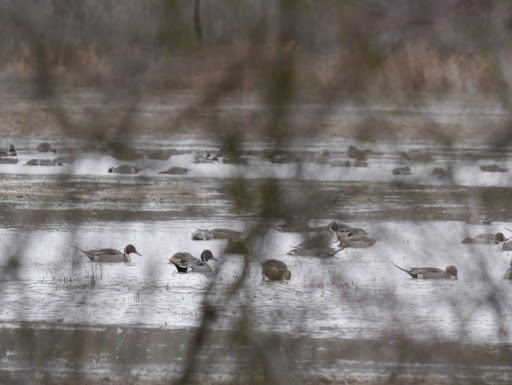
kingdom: Animalia
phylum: Chordata
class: Aves
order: Anseriformes
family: Anatidae
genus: Anas
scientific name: Anas acuta
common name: Northern pintail
